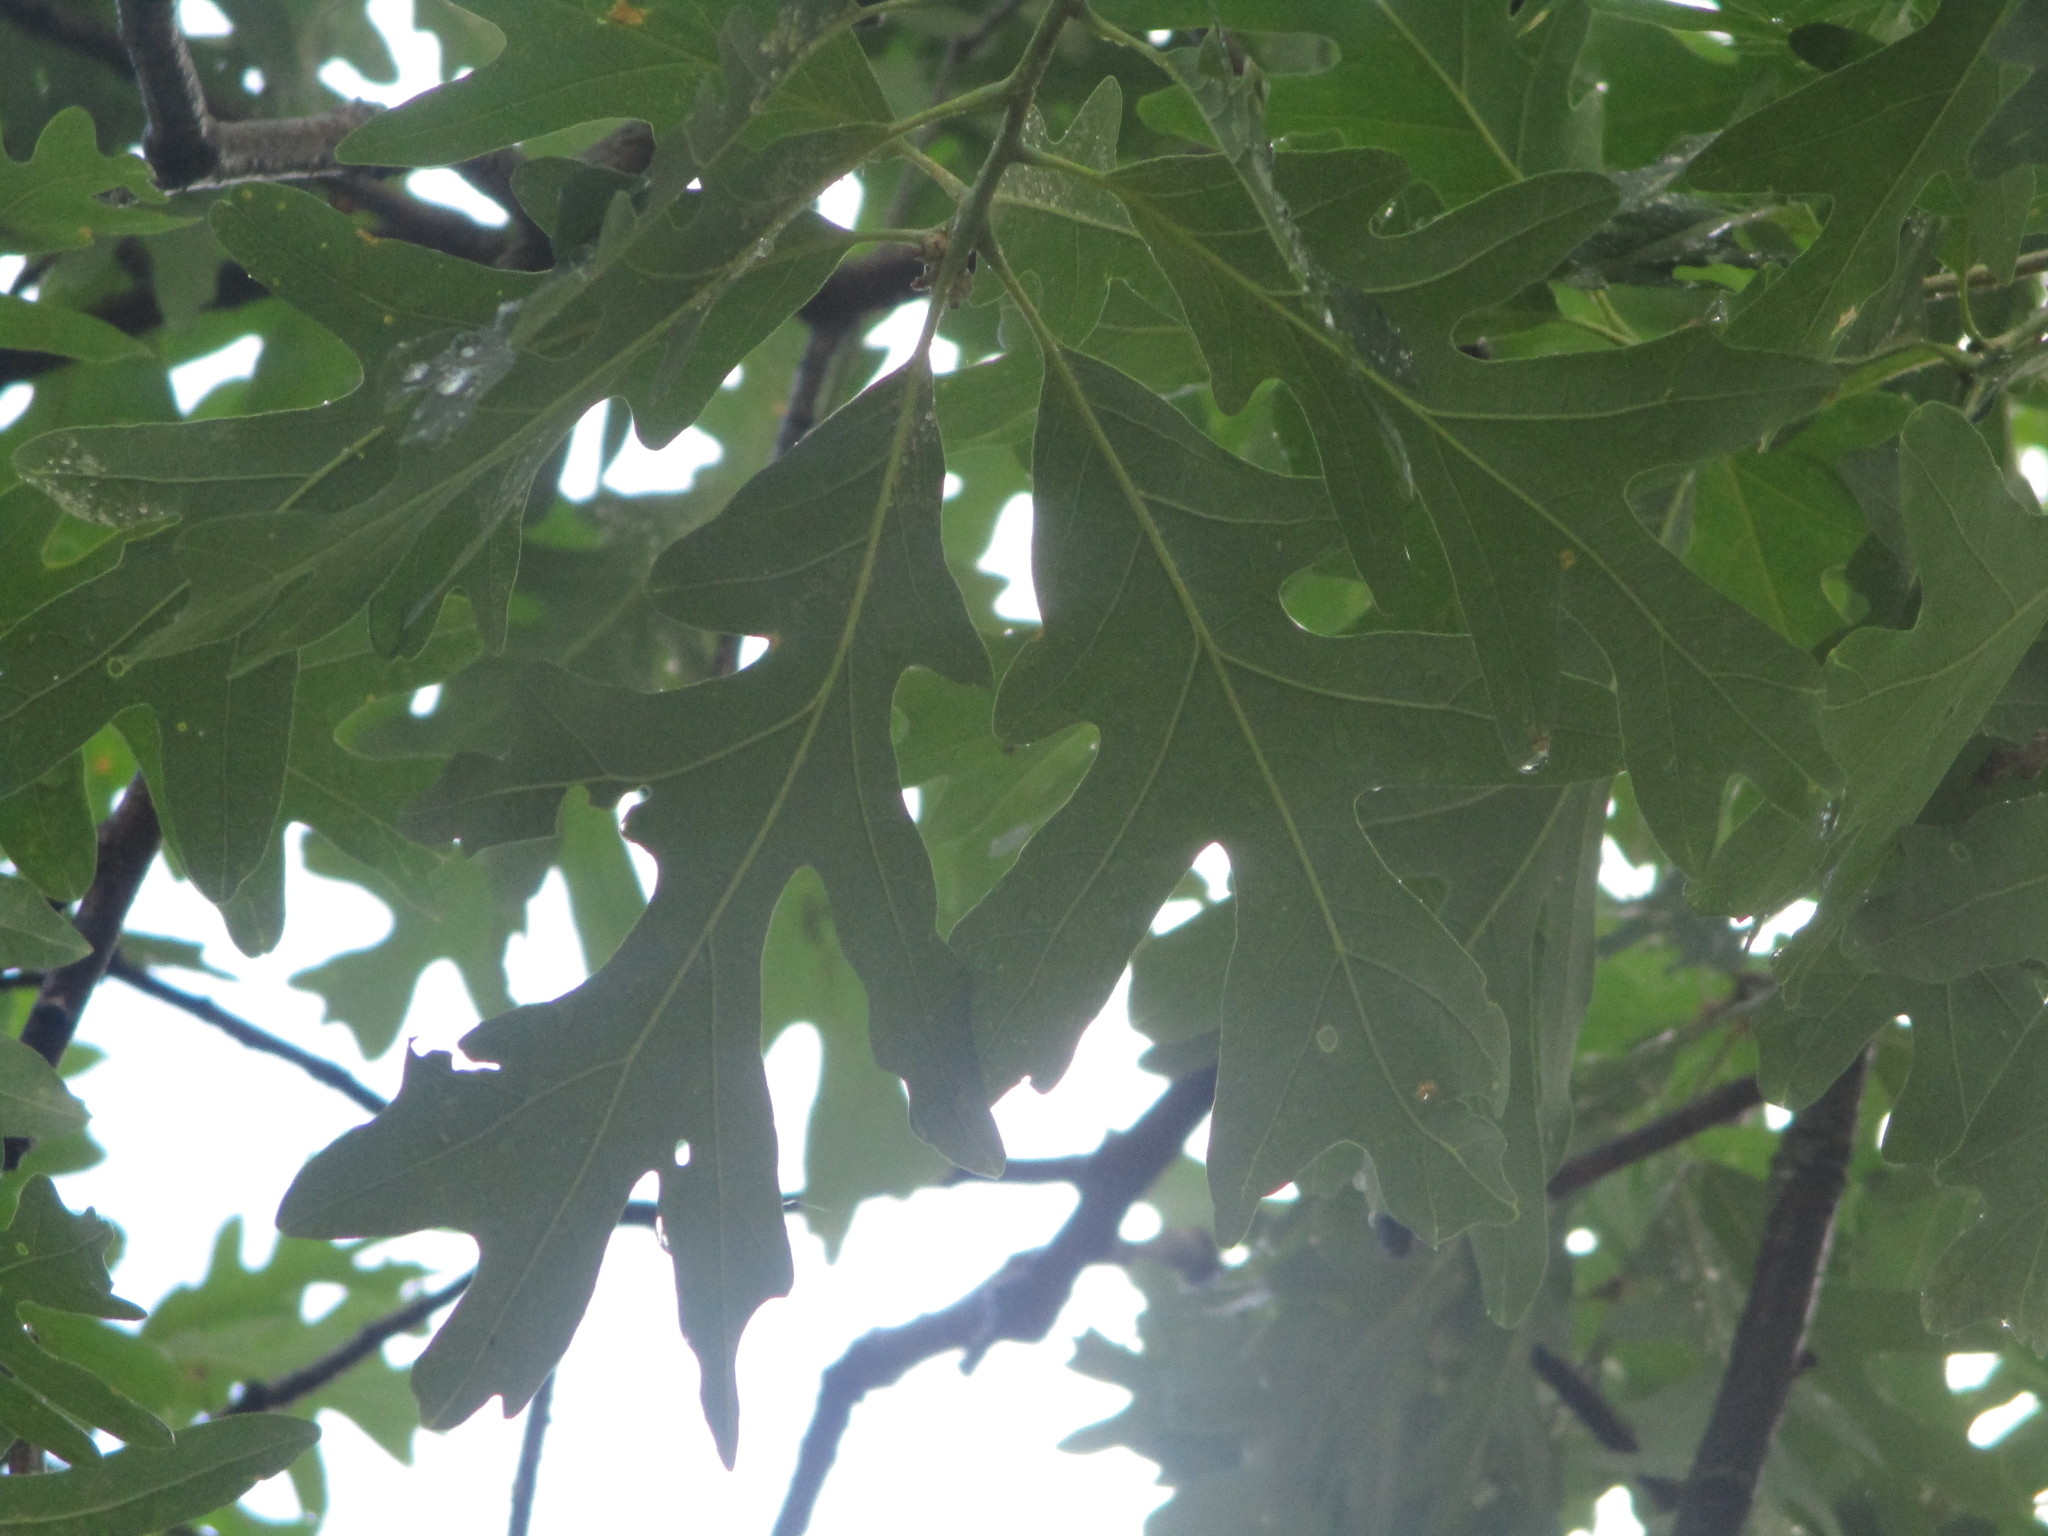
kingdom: Plantae
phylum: Tracheophyta
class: Magnoliopsida
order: Fagales
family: Fagaceae
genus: Quercus
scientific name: Quercus alba
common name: White oak
